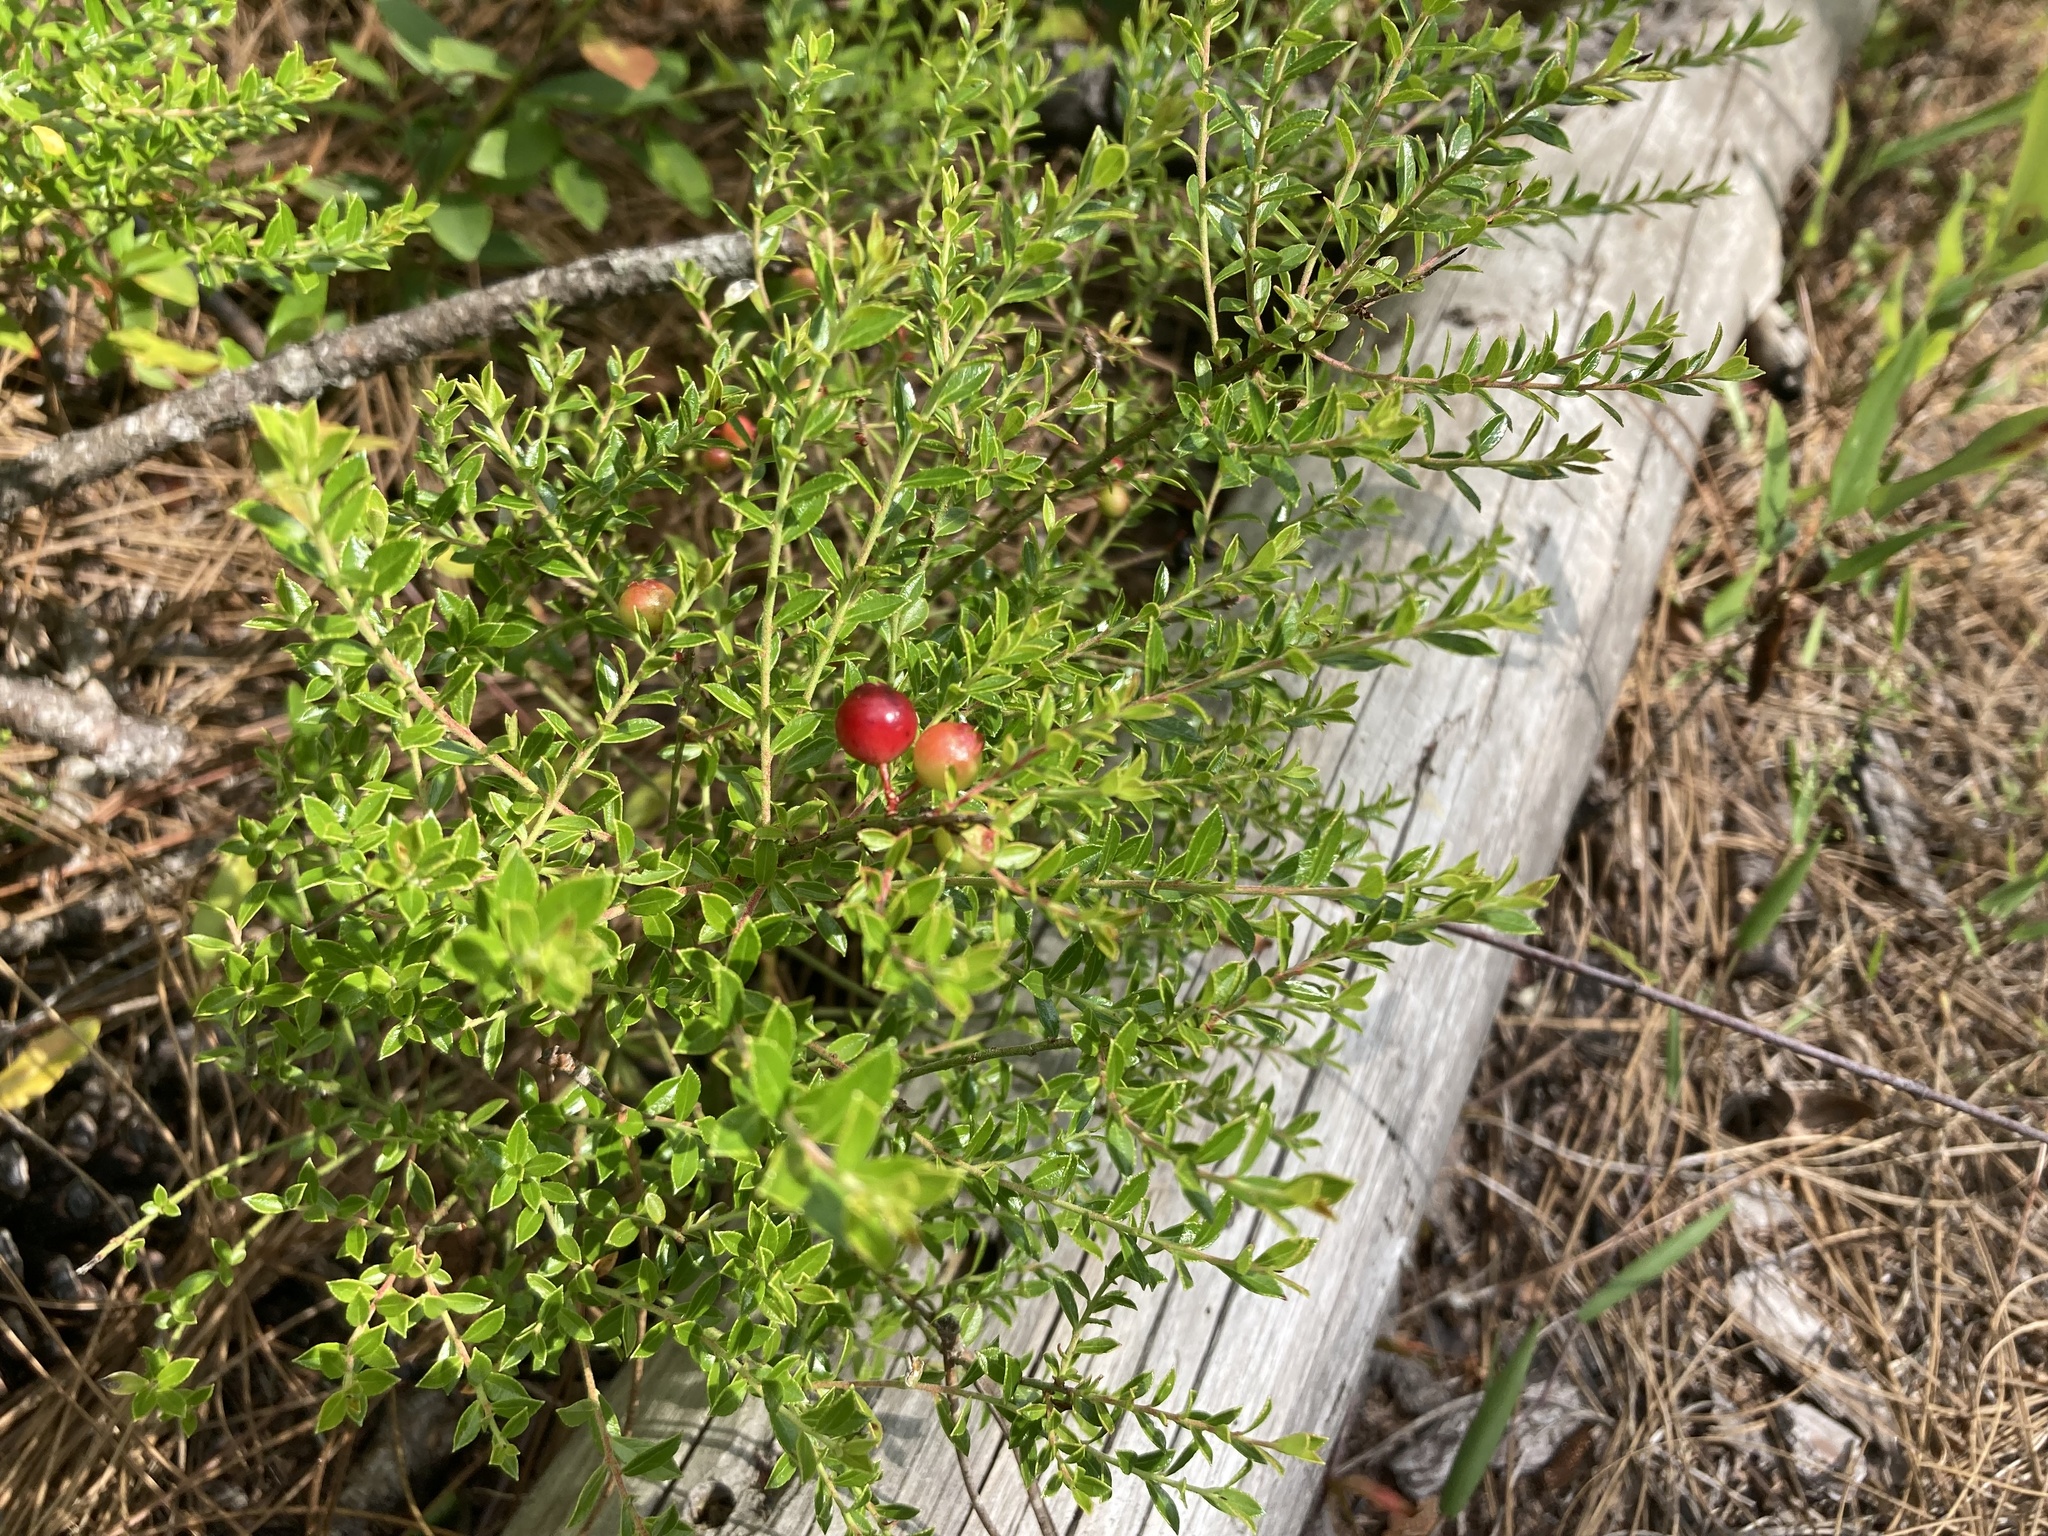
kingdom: Plantae
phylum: Tracheophyta
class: Magnoliopsida
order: Ericales
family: Ericaceae
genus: Vaccinium
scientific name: Vaccinium myrsinites
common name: Evergreen blueberry
